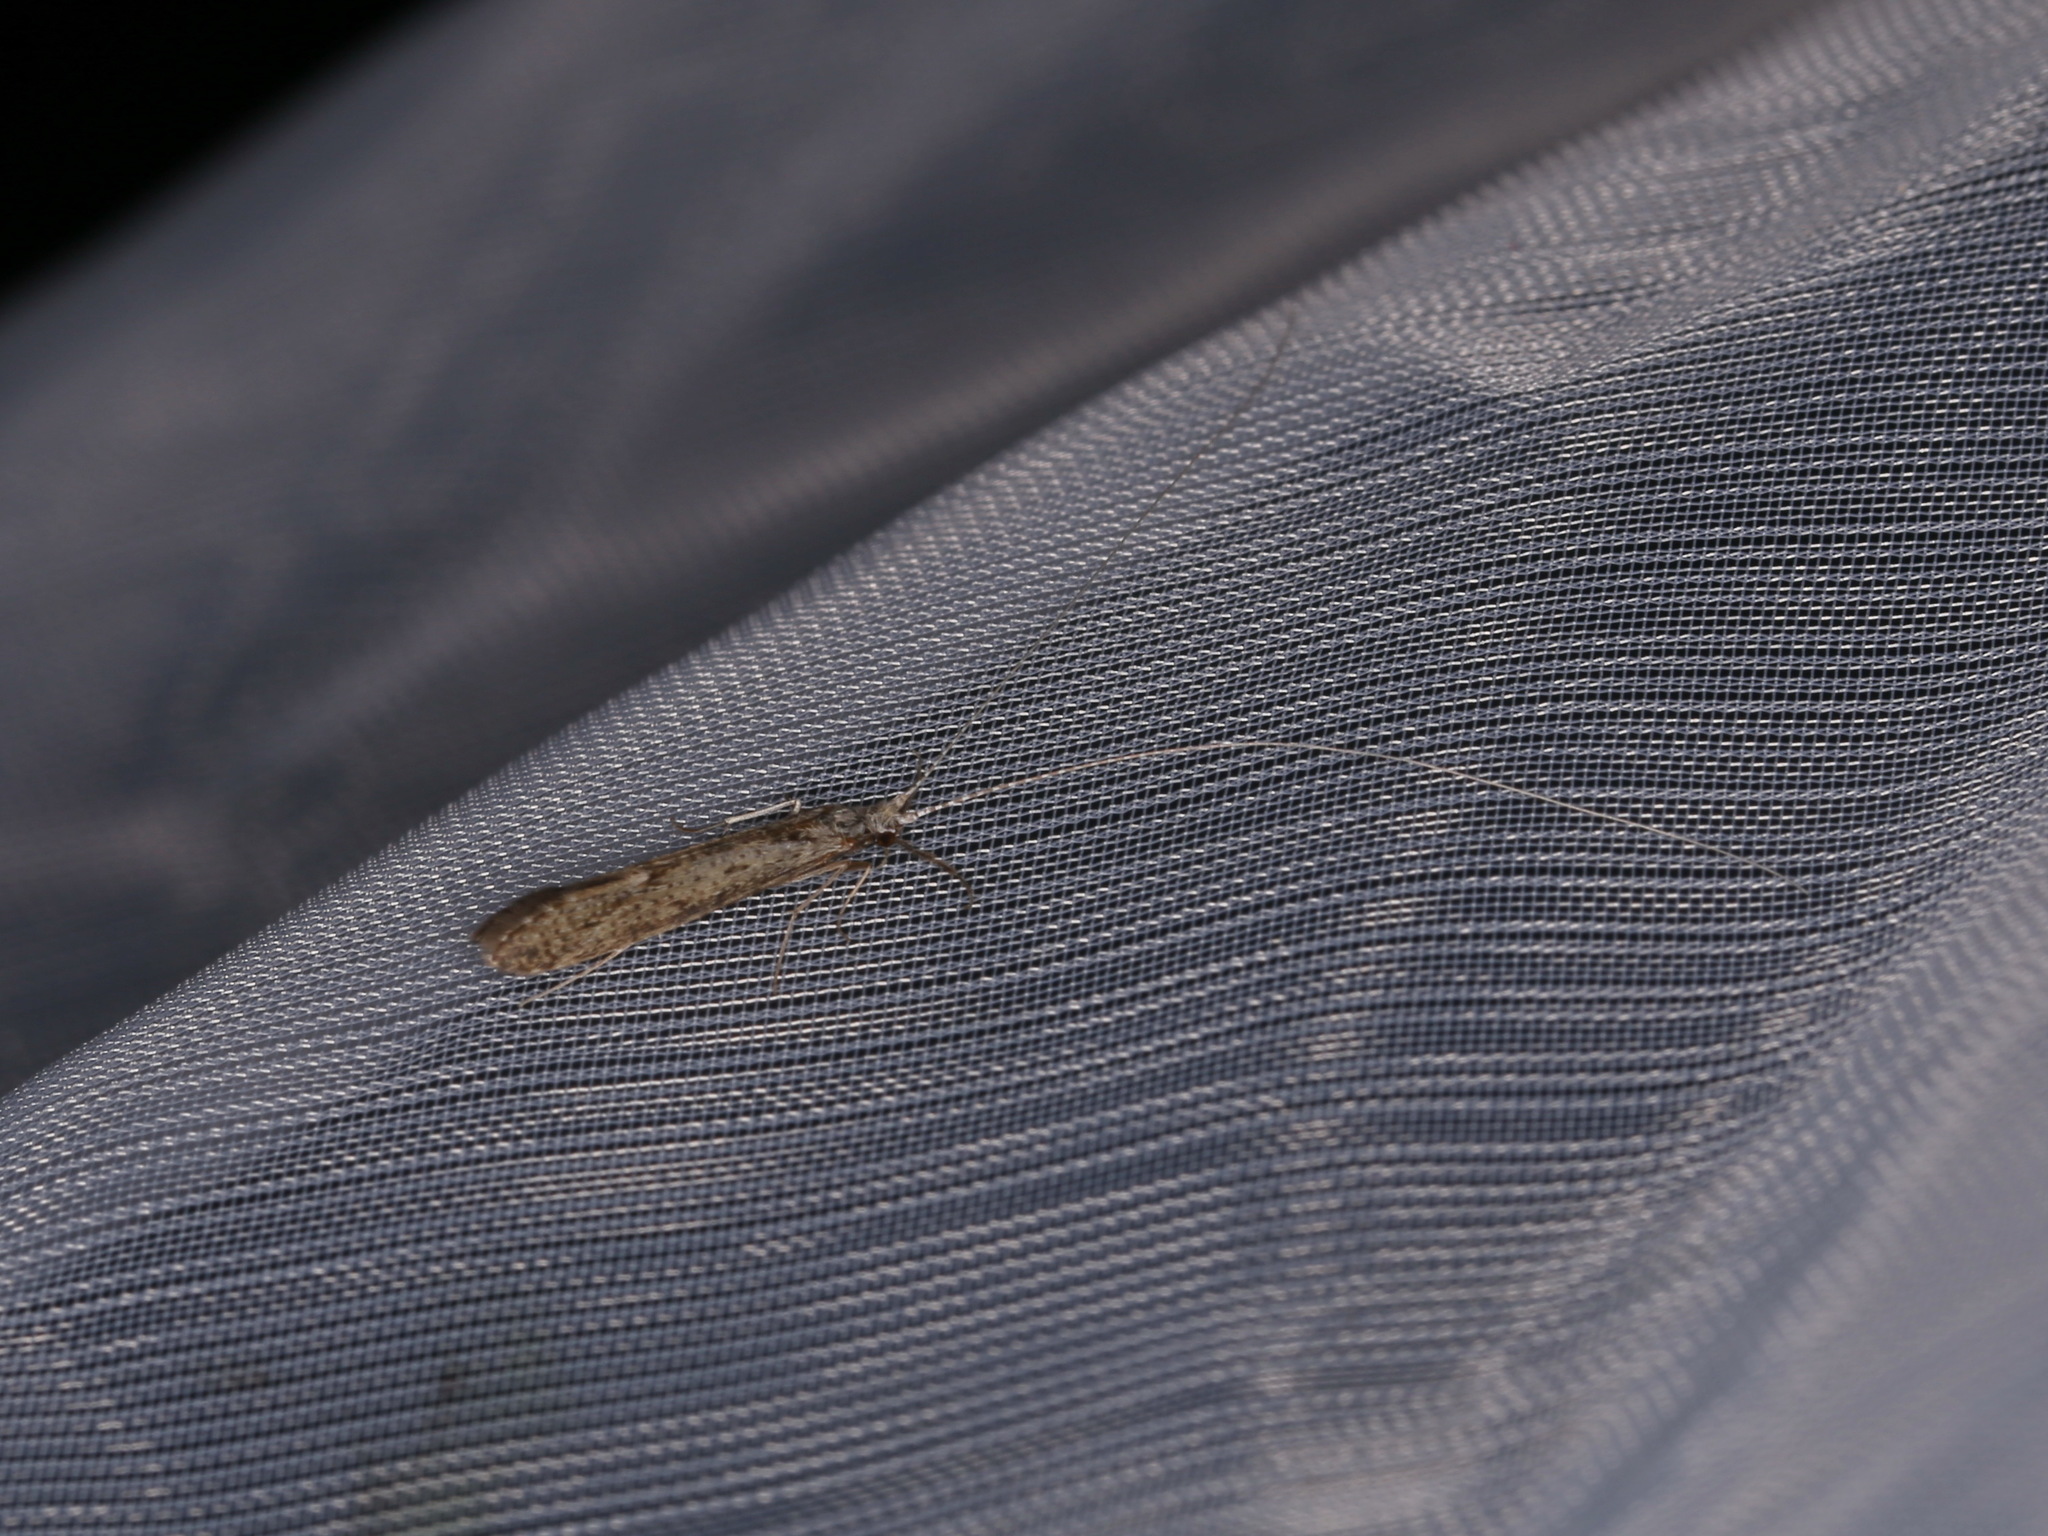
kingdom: Animalia
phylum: Arthropoda
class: Insecta
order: Trichoptera
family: Leptoceridae
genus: Leptocerus
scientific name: Leptocerus tineiformis
